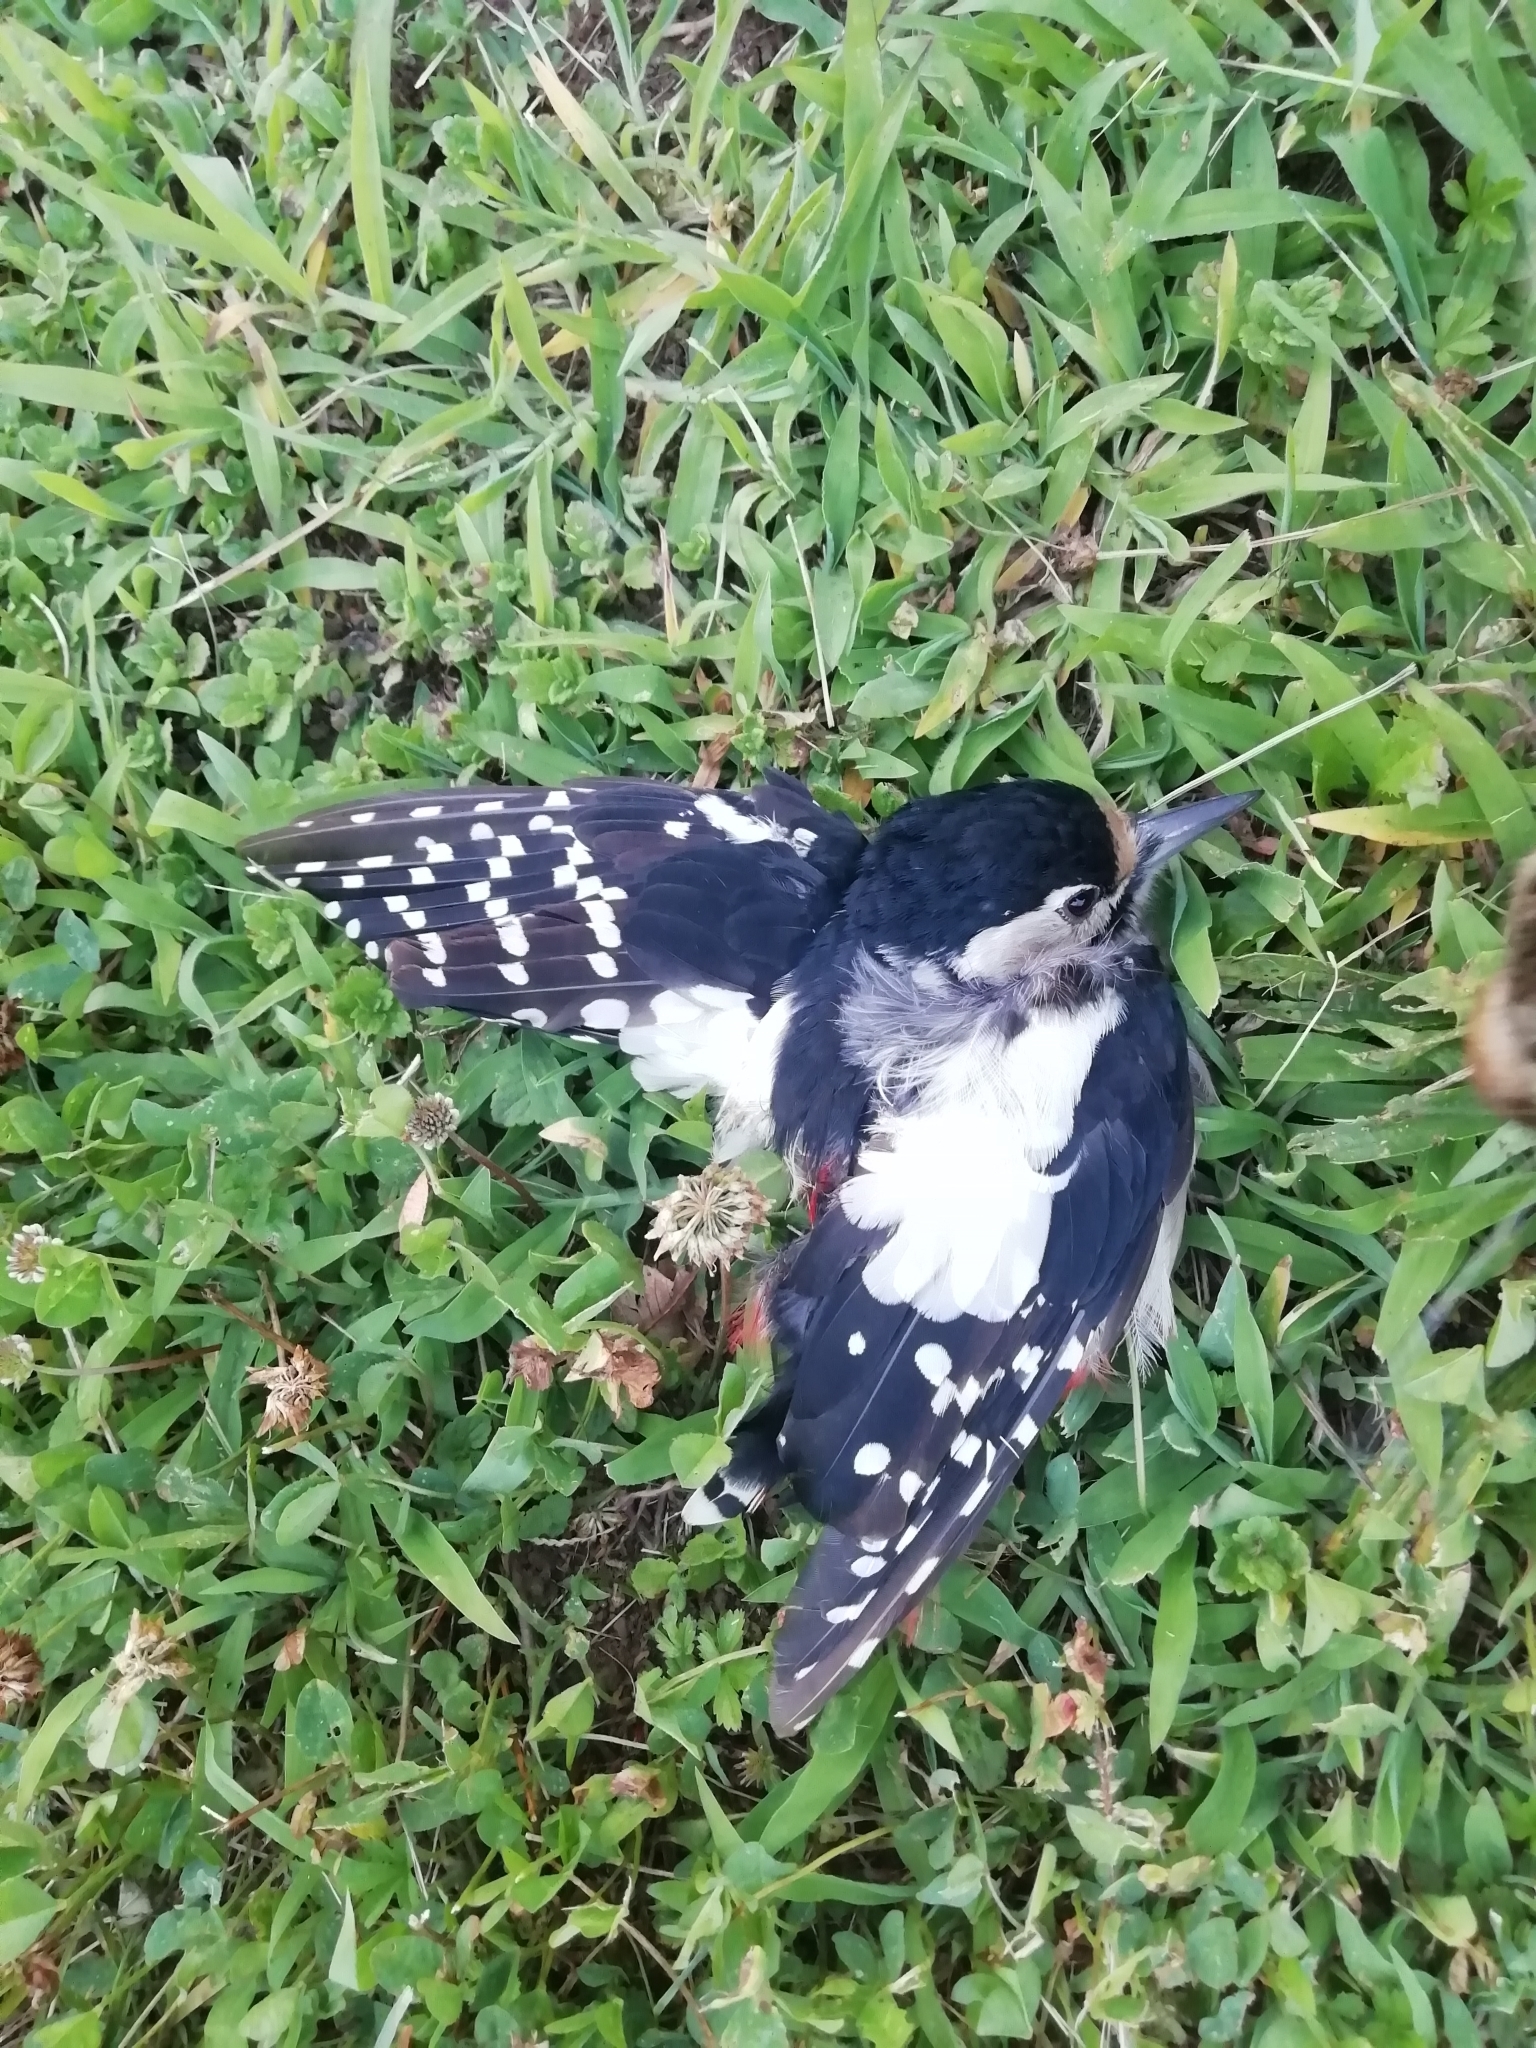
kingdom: Animalia
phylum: Chordata
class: Aves
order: Piciformes
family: Picidae
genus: Dendrocopos
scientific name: Dendrocopos major
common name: Great spotted woodpecker
